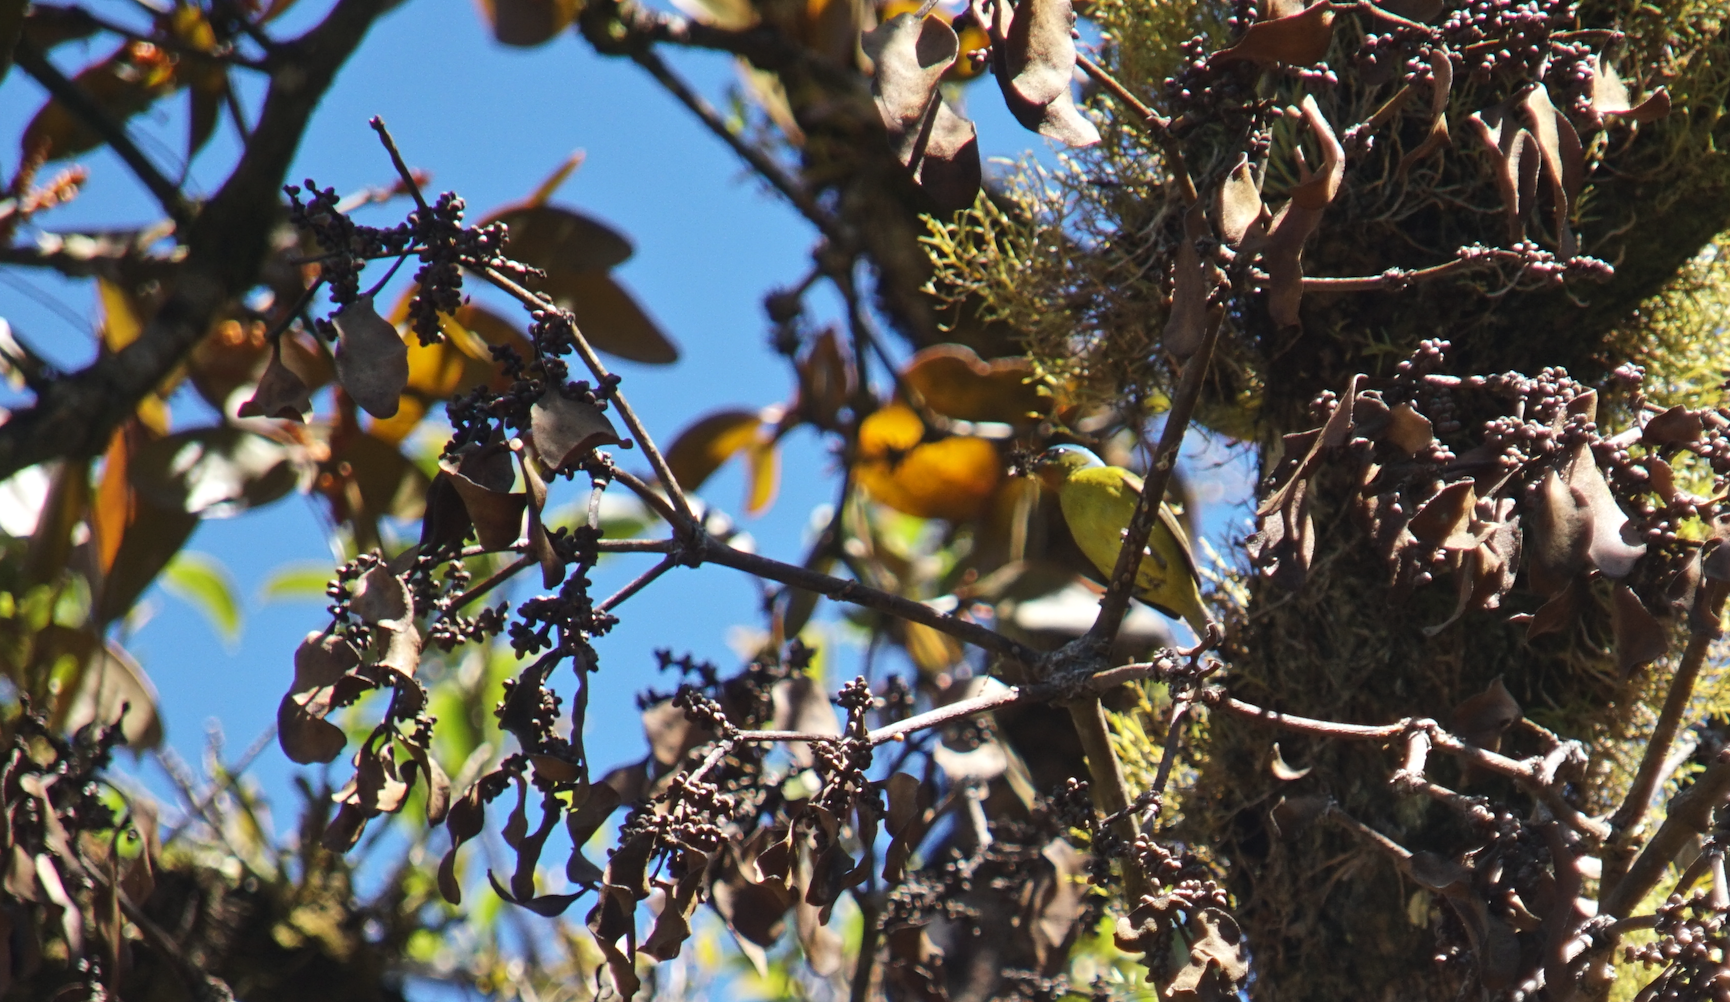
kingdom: Animalia
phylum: Chordata
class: Aves
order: Passeriformes
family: Fringillidae
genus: Euphonia
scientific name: Euphonia elegantissima
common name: Elegant euphonia
